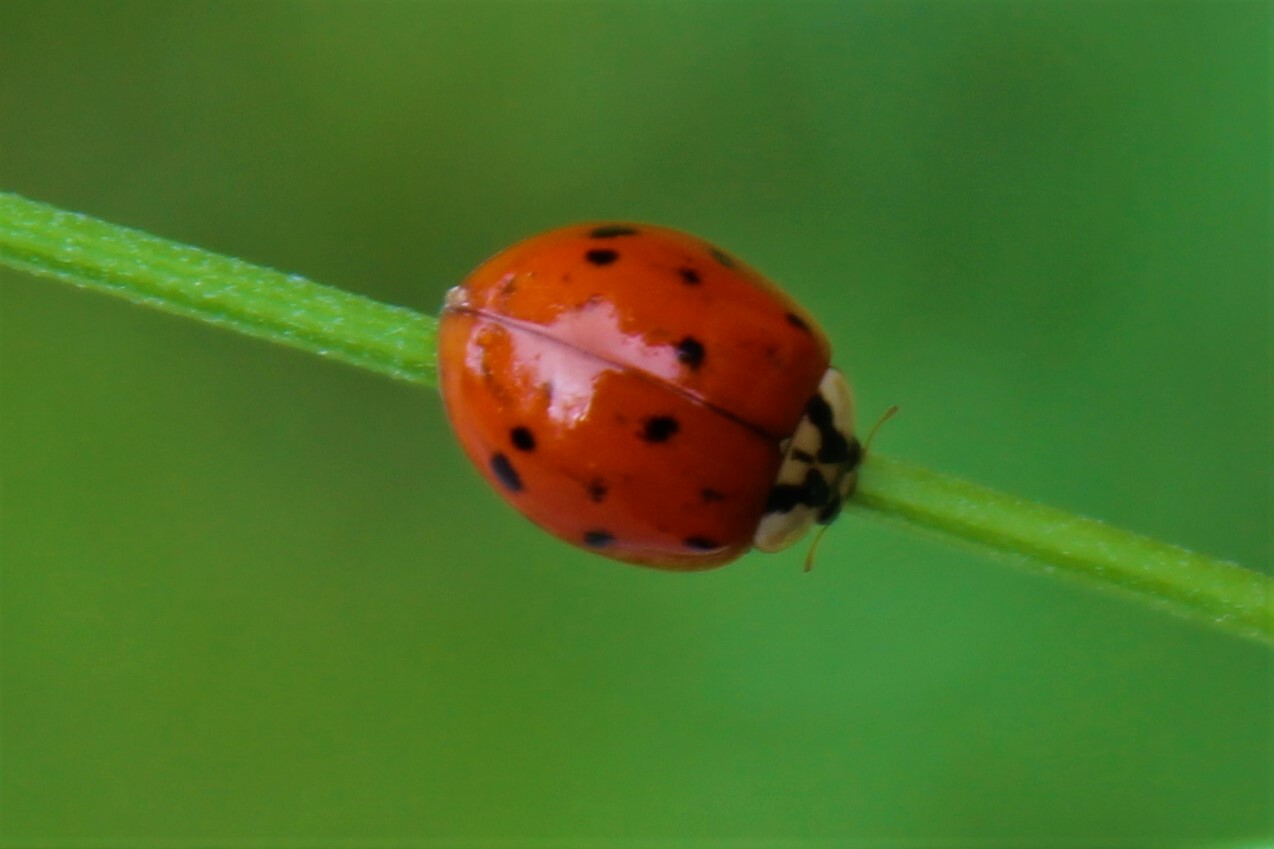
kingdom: Animalia
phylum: Arthropoda
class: Insecta
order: Coleoptera
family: Coccinellidae
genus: Harmonia
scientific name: Harmonia axyridis
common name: Harlequin ladybird
